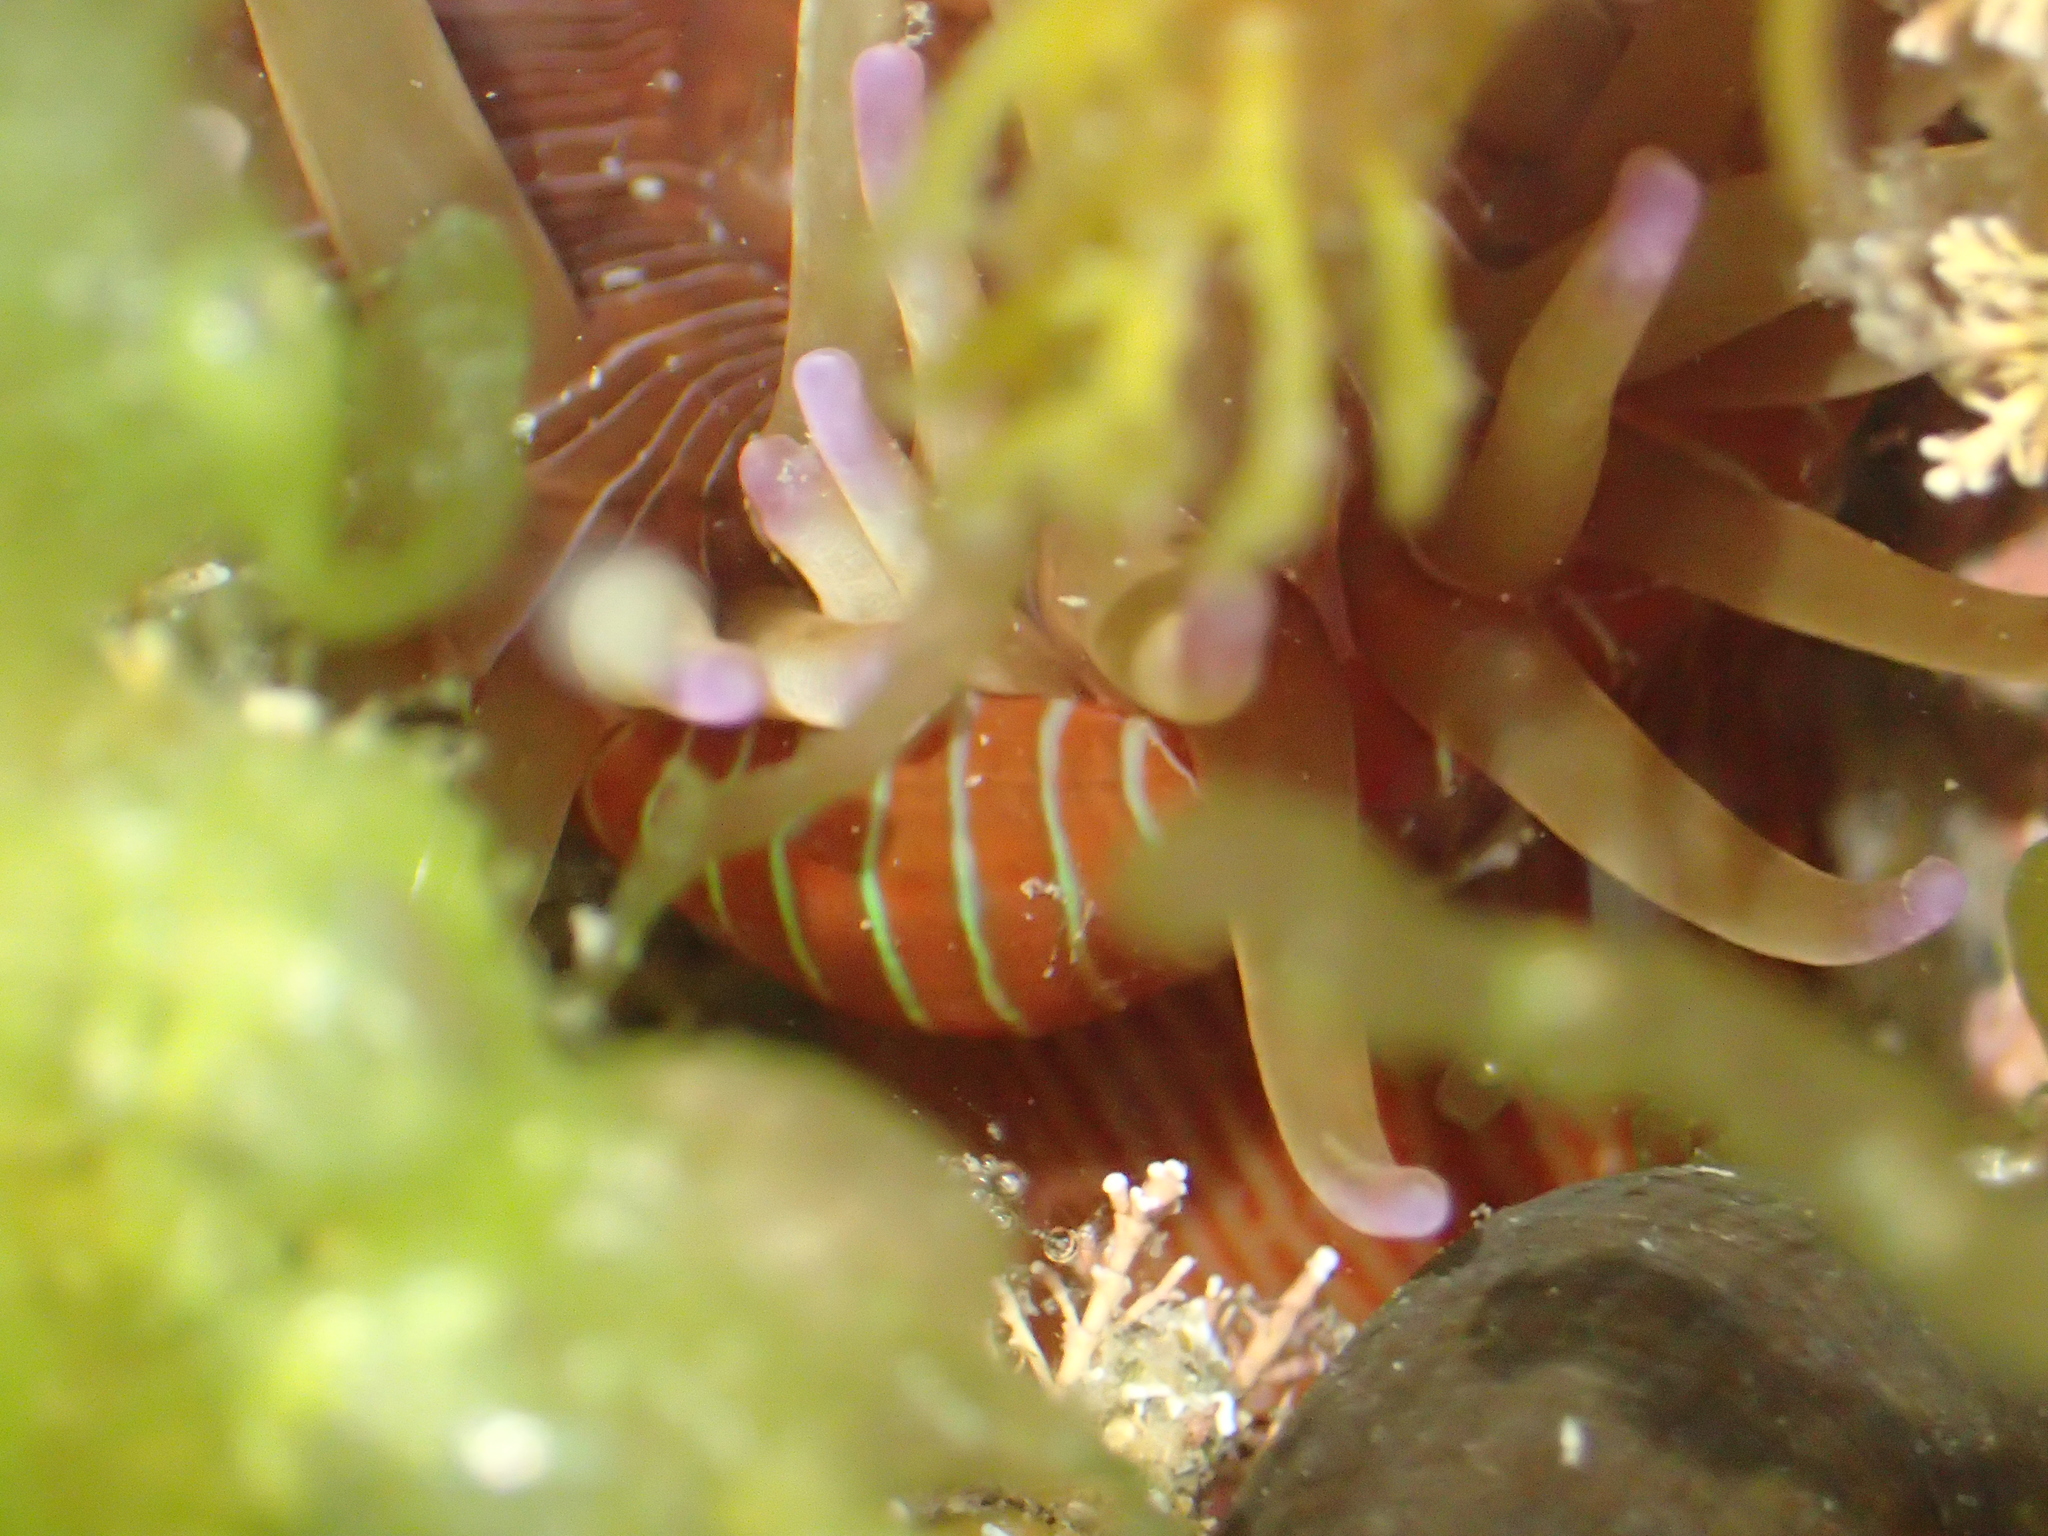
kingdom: Animalia
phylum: Cnidaria
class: Anthozoa
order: Actiniaria
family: Actiniidae
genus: Epiactis
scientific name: Epiactis thompsoni
